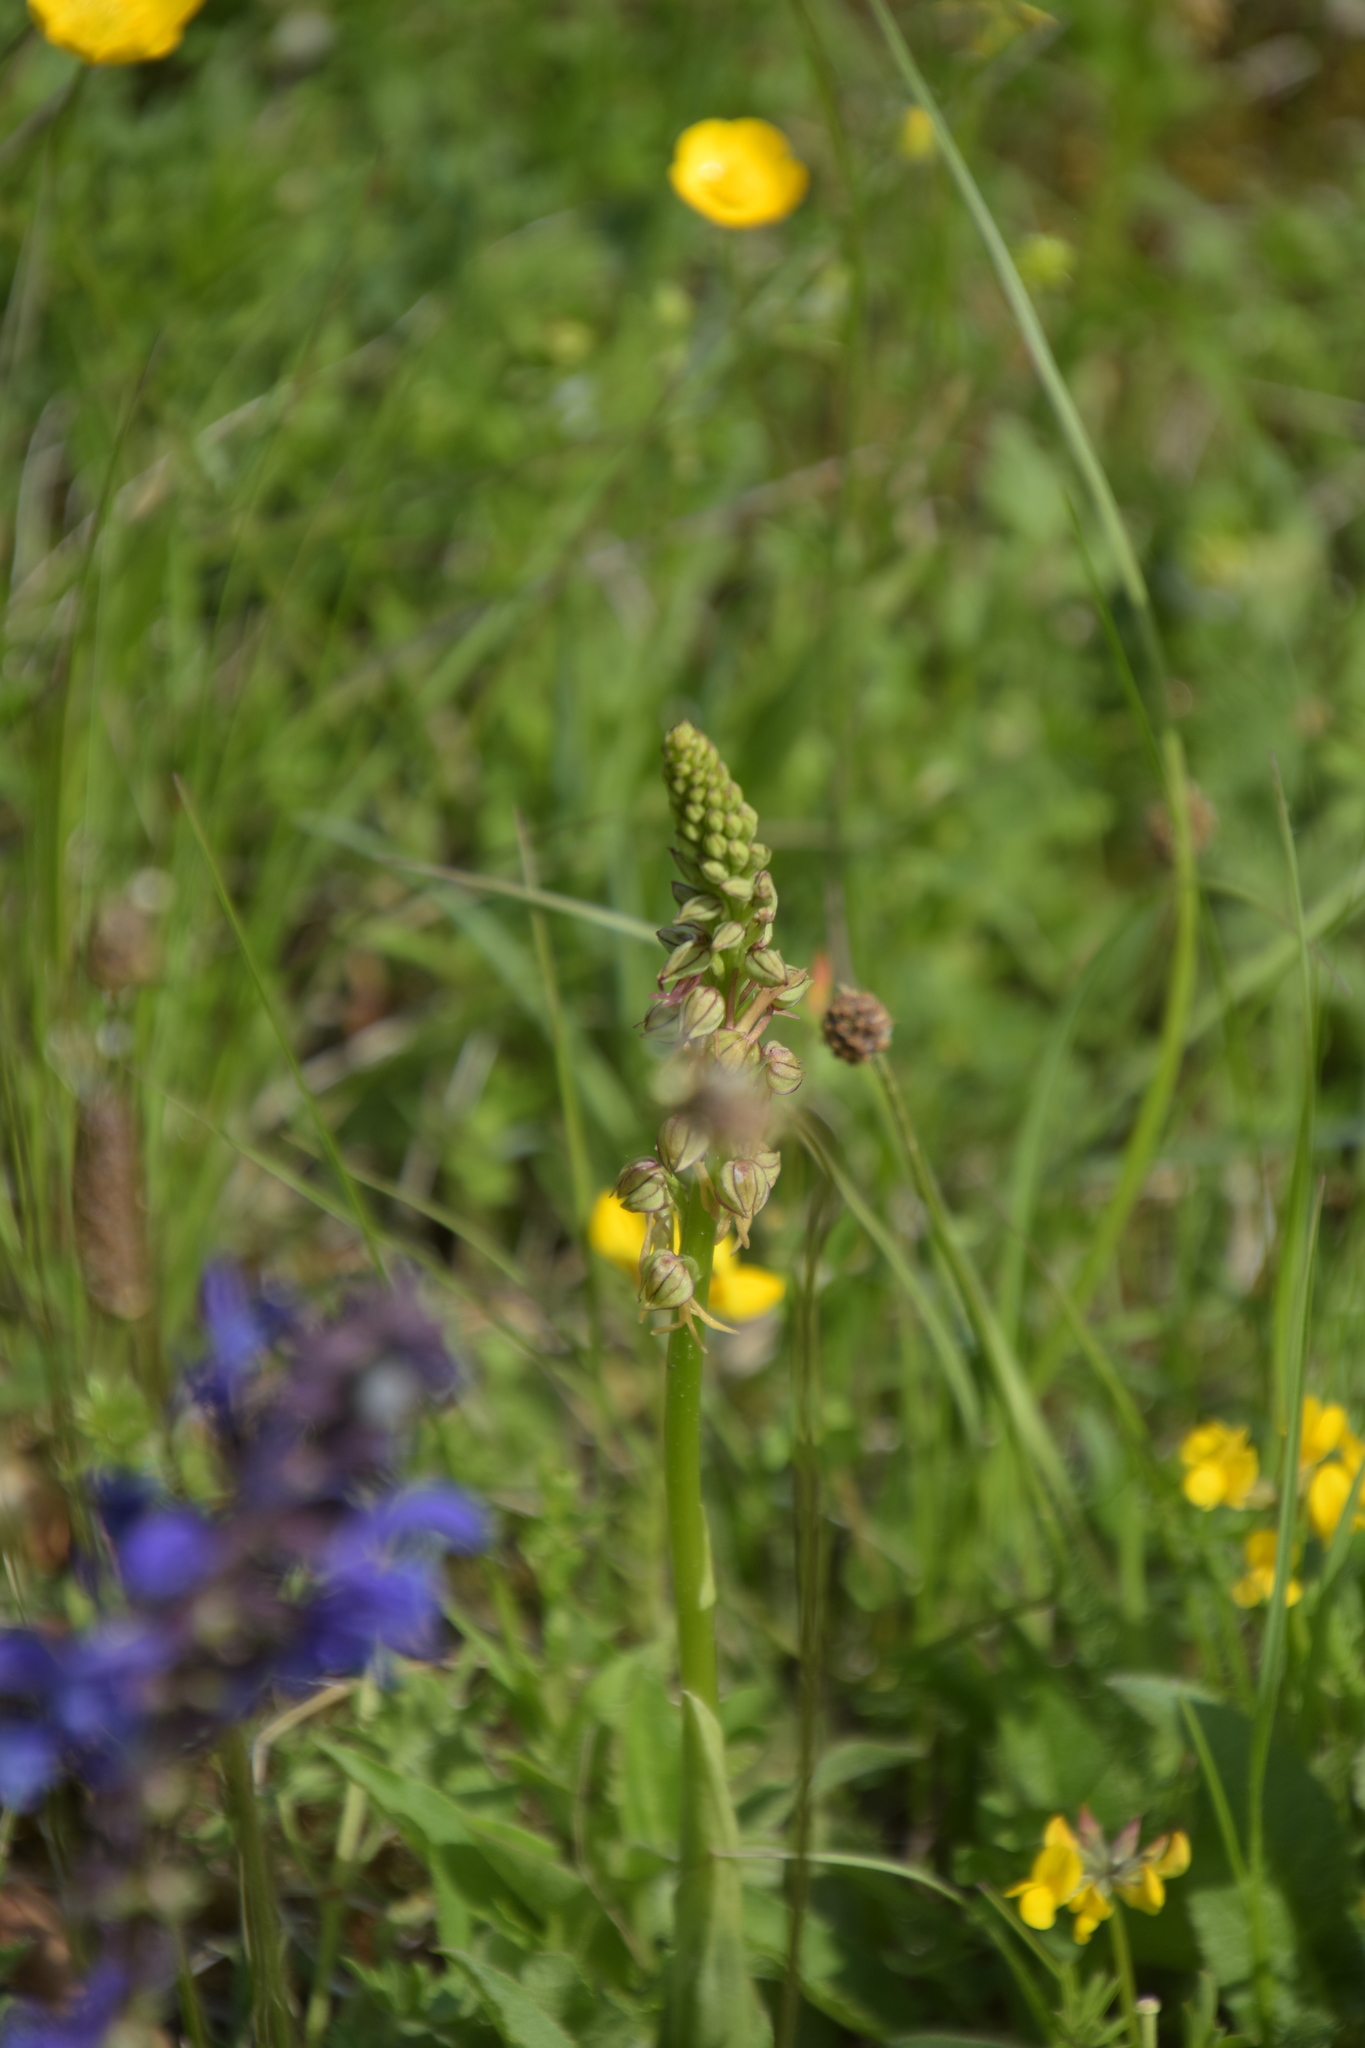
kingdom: Plantae
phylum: Tracheophyta
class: Liliopsida
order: Asparagales
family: Orchidaceae
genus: Orchis
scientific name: Orchis anthropophora
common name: Man orchid
